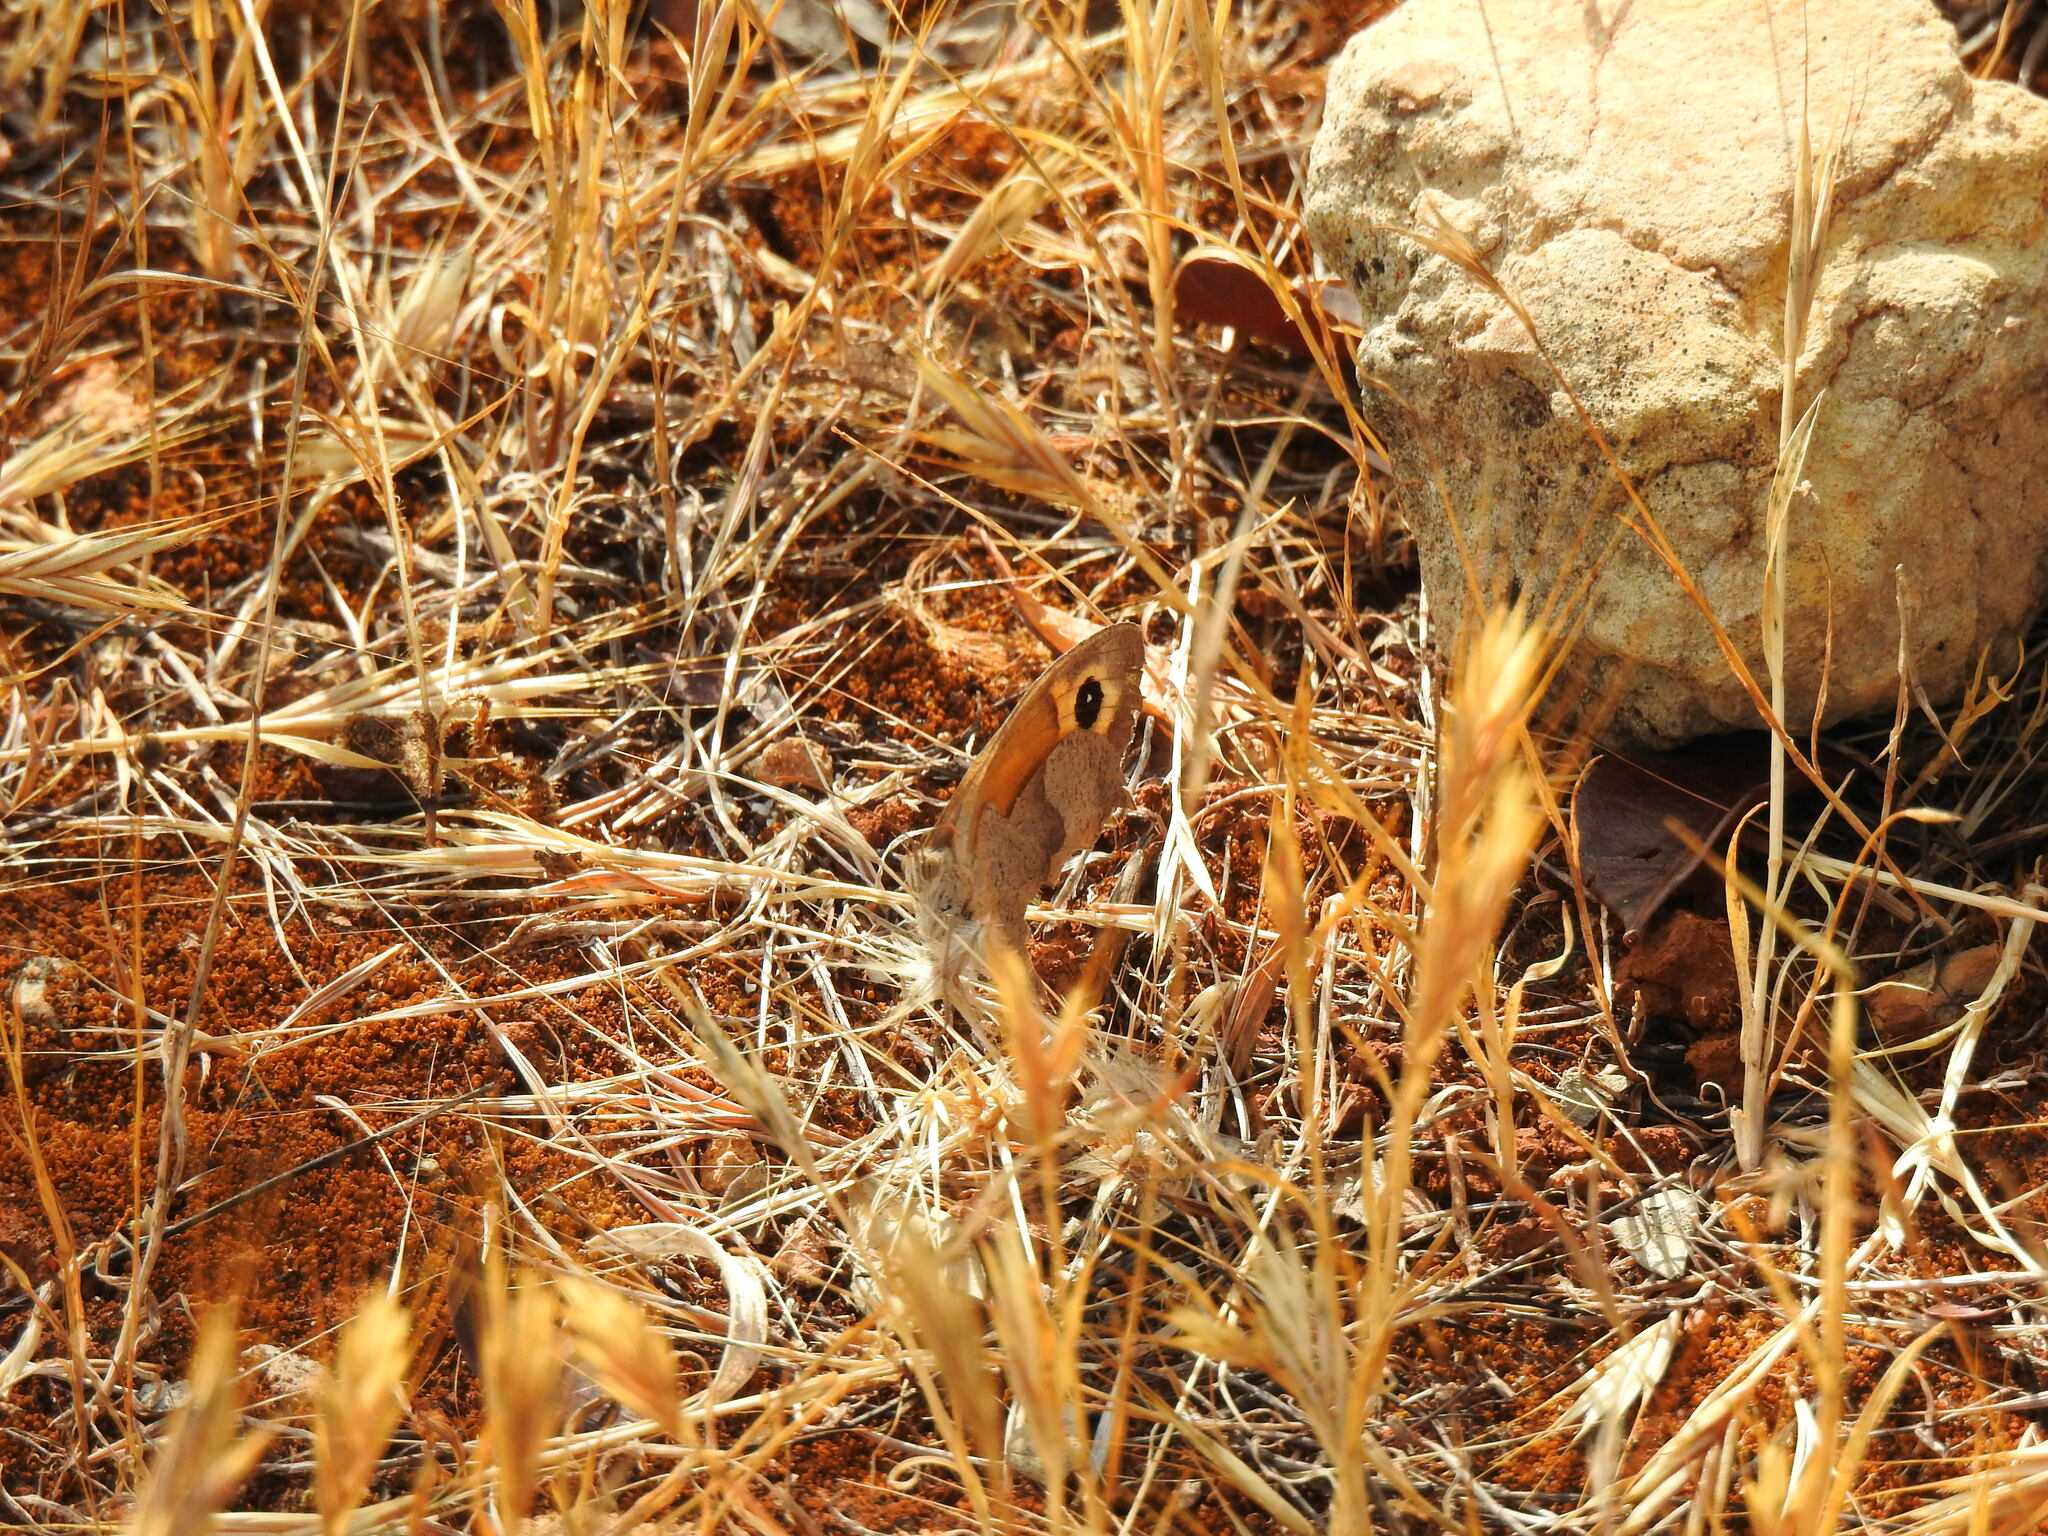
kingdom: Animalia
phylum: Arthropoda
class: Insecta
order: Lepidoptera
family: Nymphalidae
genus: Maniola
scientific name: Maniola jurtina
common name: Meadow brown
